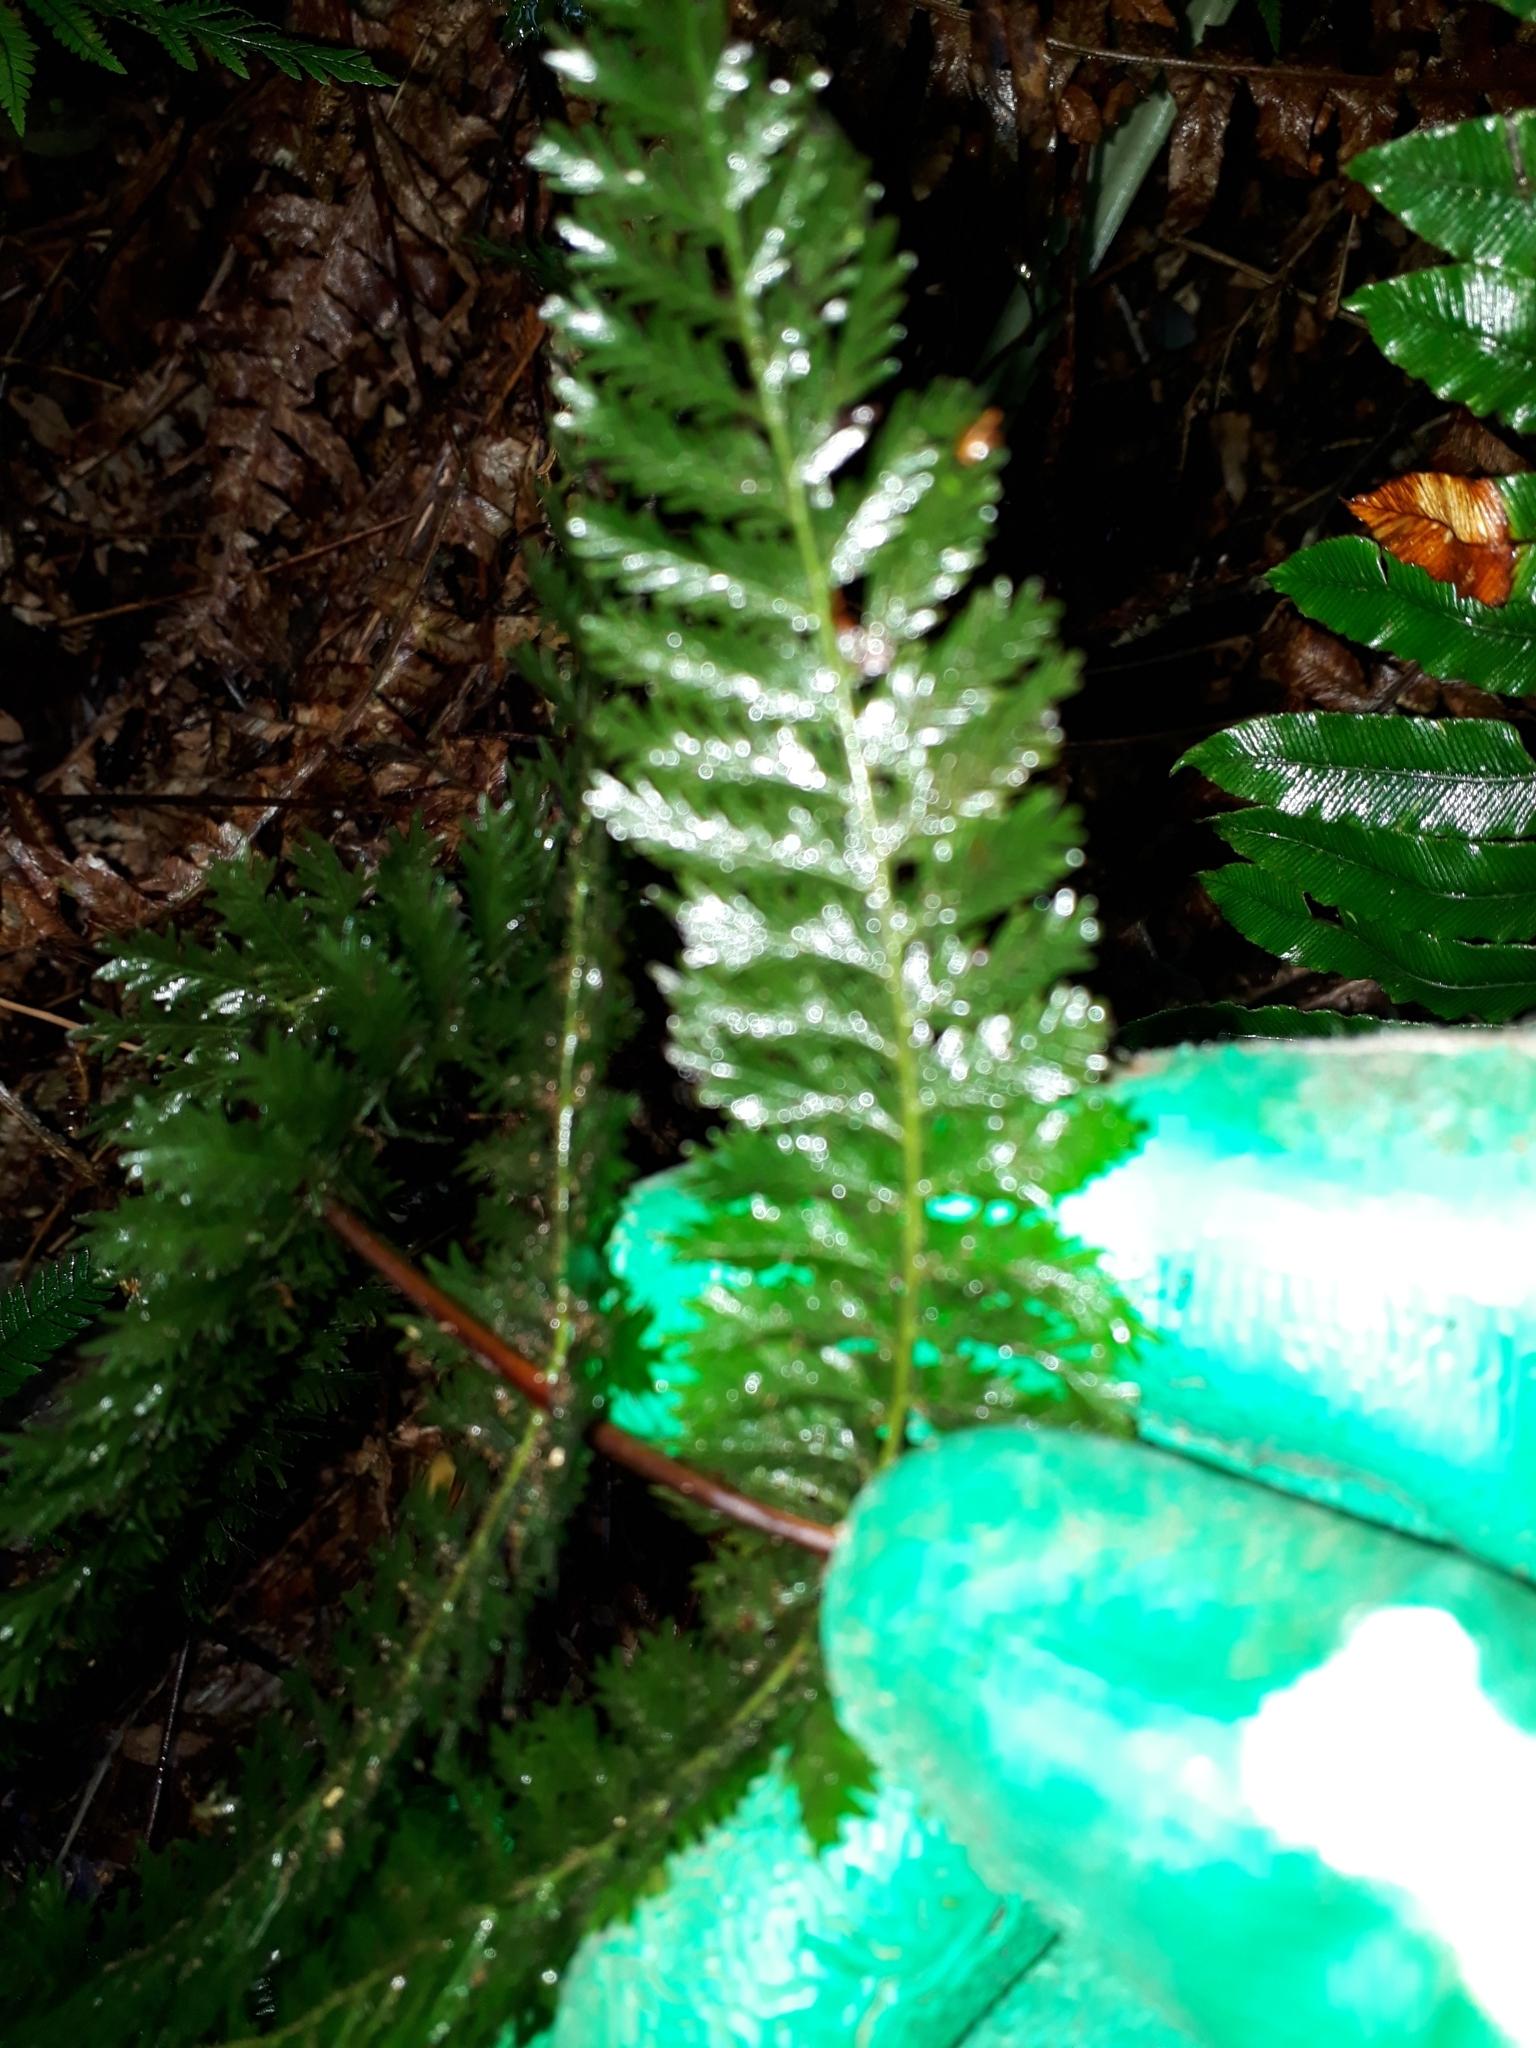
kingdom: Plantae
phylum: Tracheophyta
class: Polypodiopsida
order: Osmundales
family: Osmundaceae
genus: Leptopteris
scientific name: Leptopteris hymenophylloides
